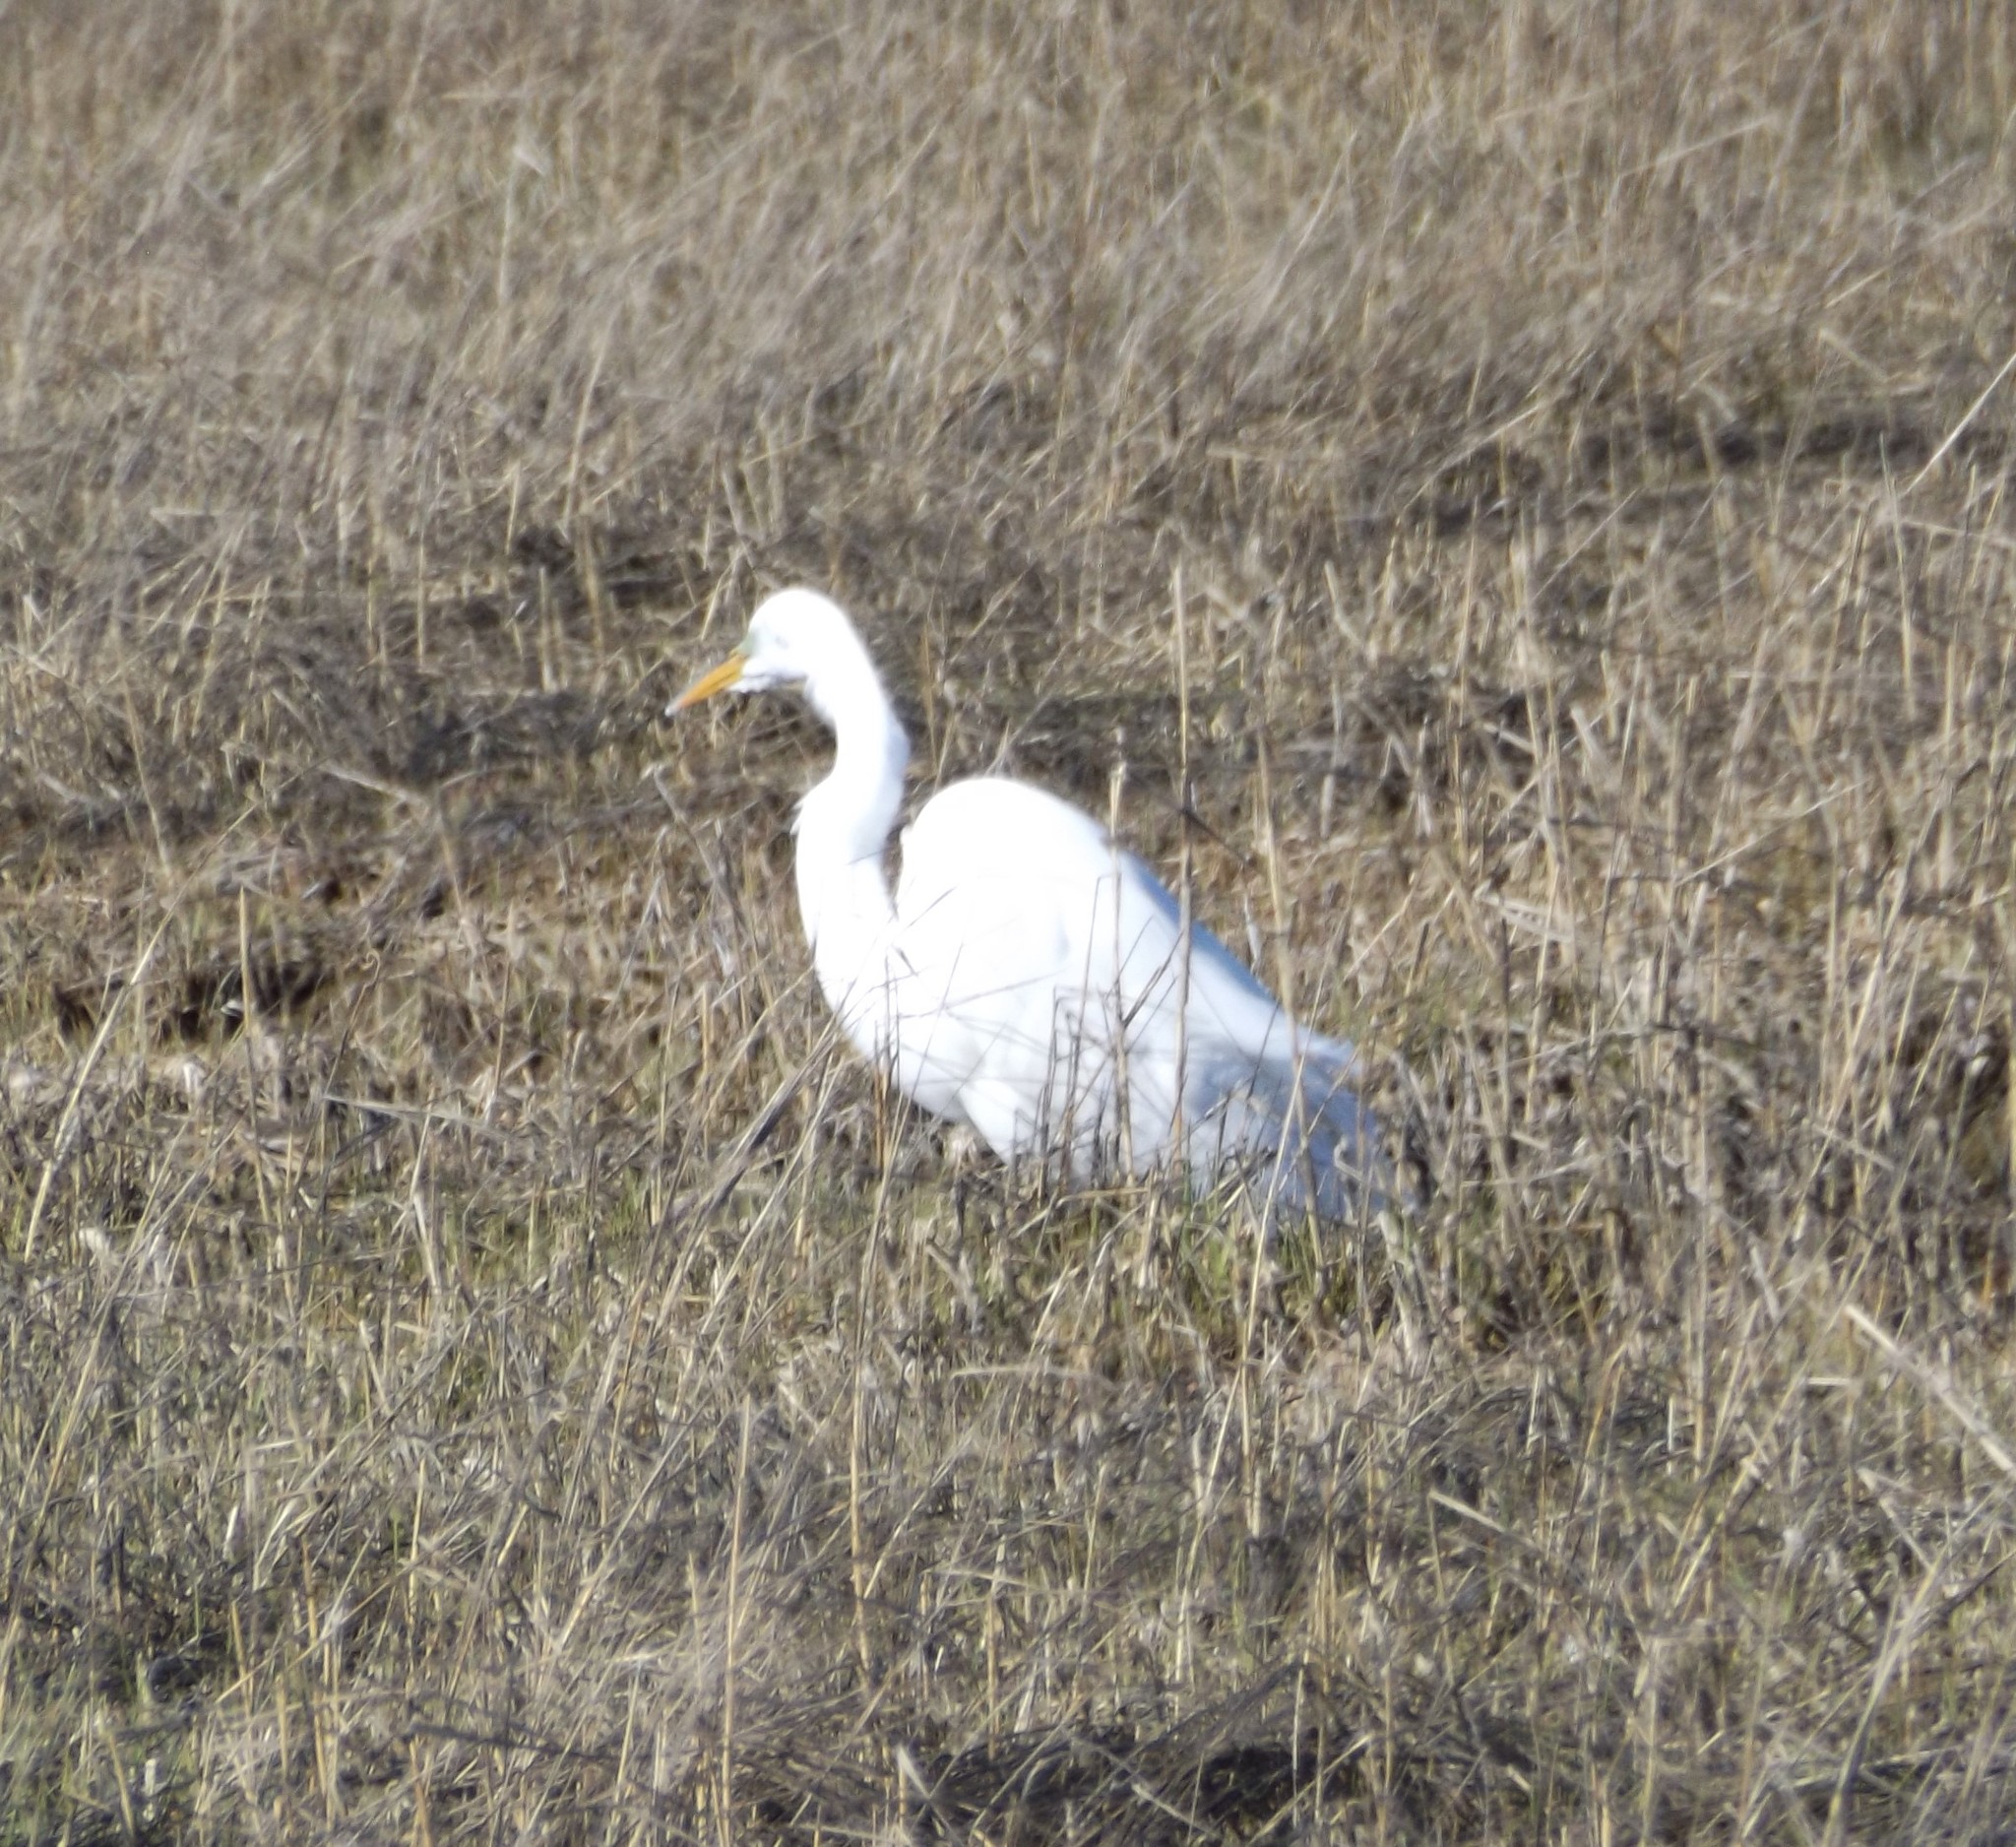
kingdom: Animalia
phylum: Chordata
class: Aves
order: Pelecaniformes
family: Ardeidae
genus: Ardea
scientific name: Ardea alba
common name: Great egret
